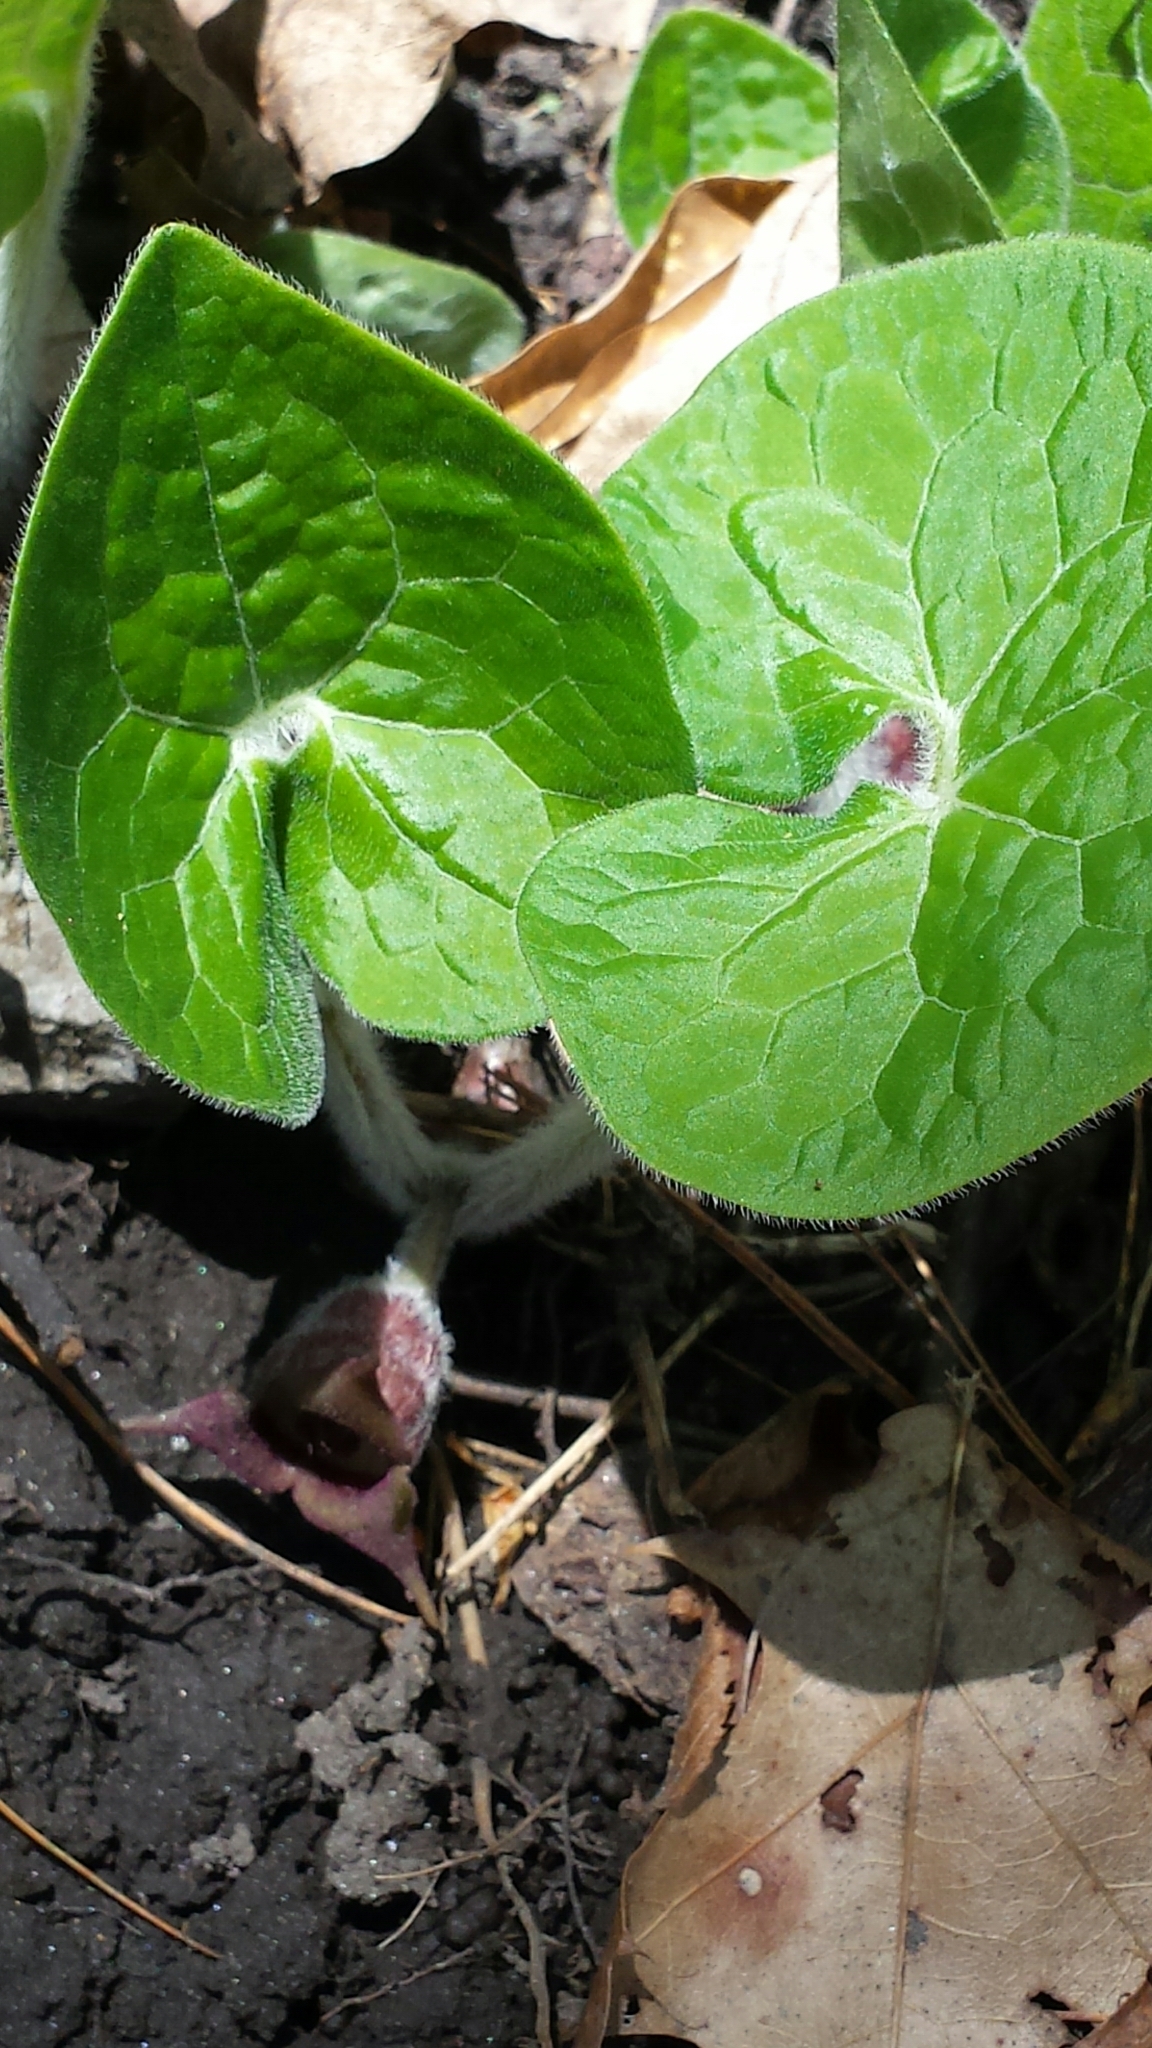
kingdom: Plantae
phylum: Tracheophyta
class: Magnoliopsida
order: Piperales
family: Aristolochiaceae
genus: Asarum
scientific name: Asarum canadense
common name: Wild ginger
